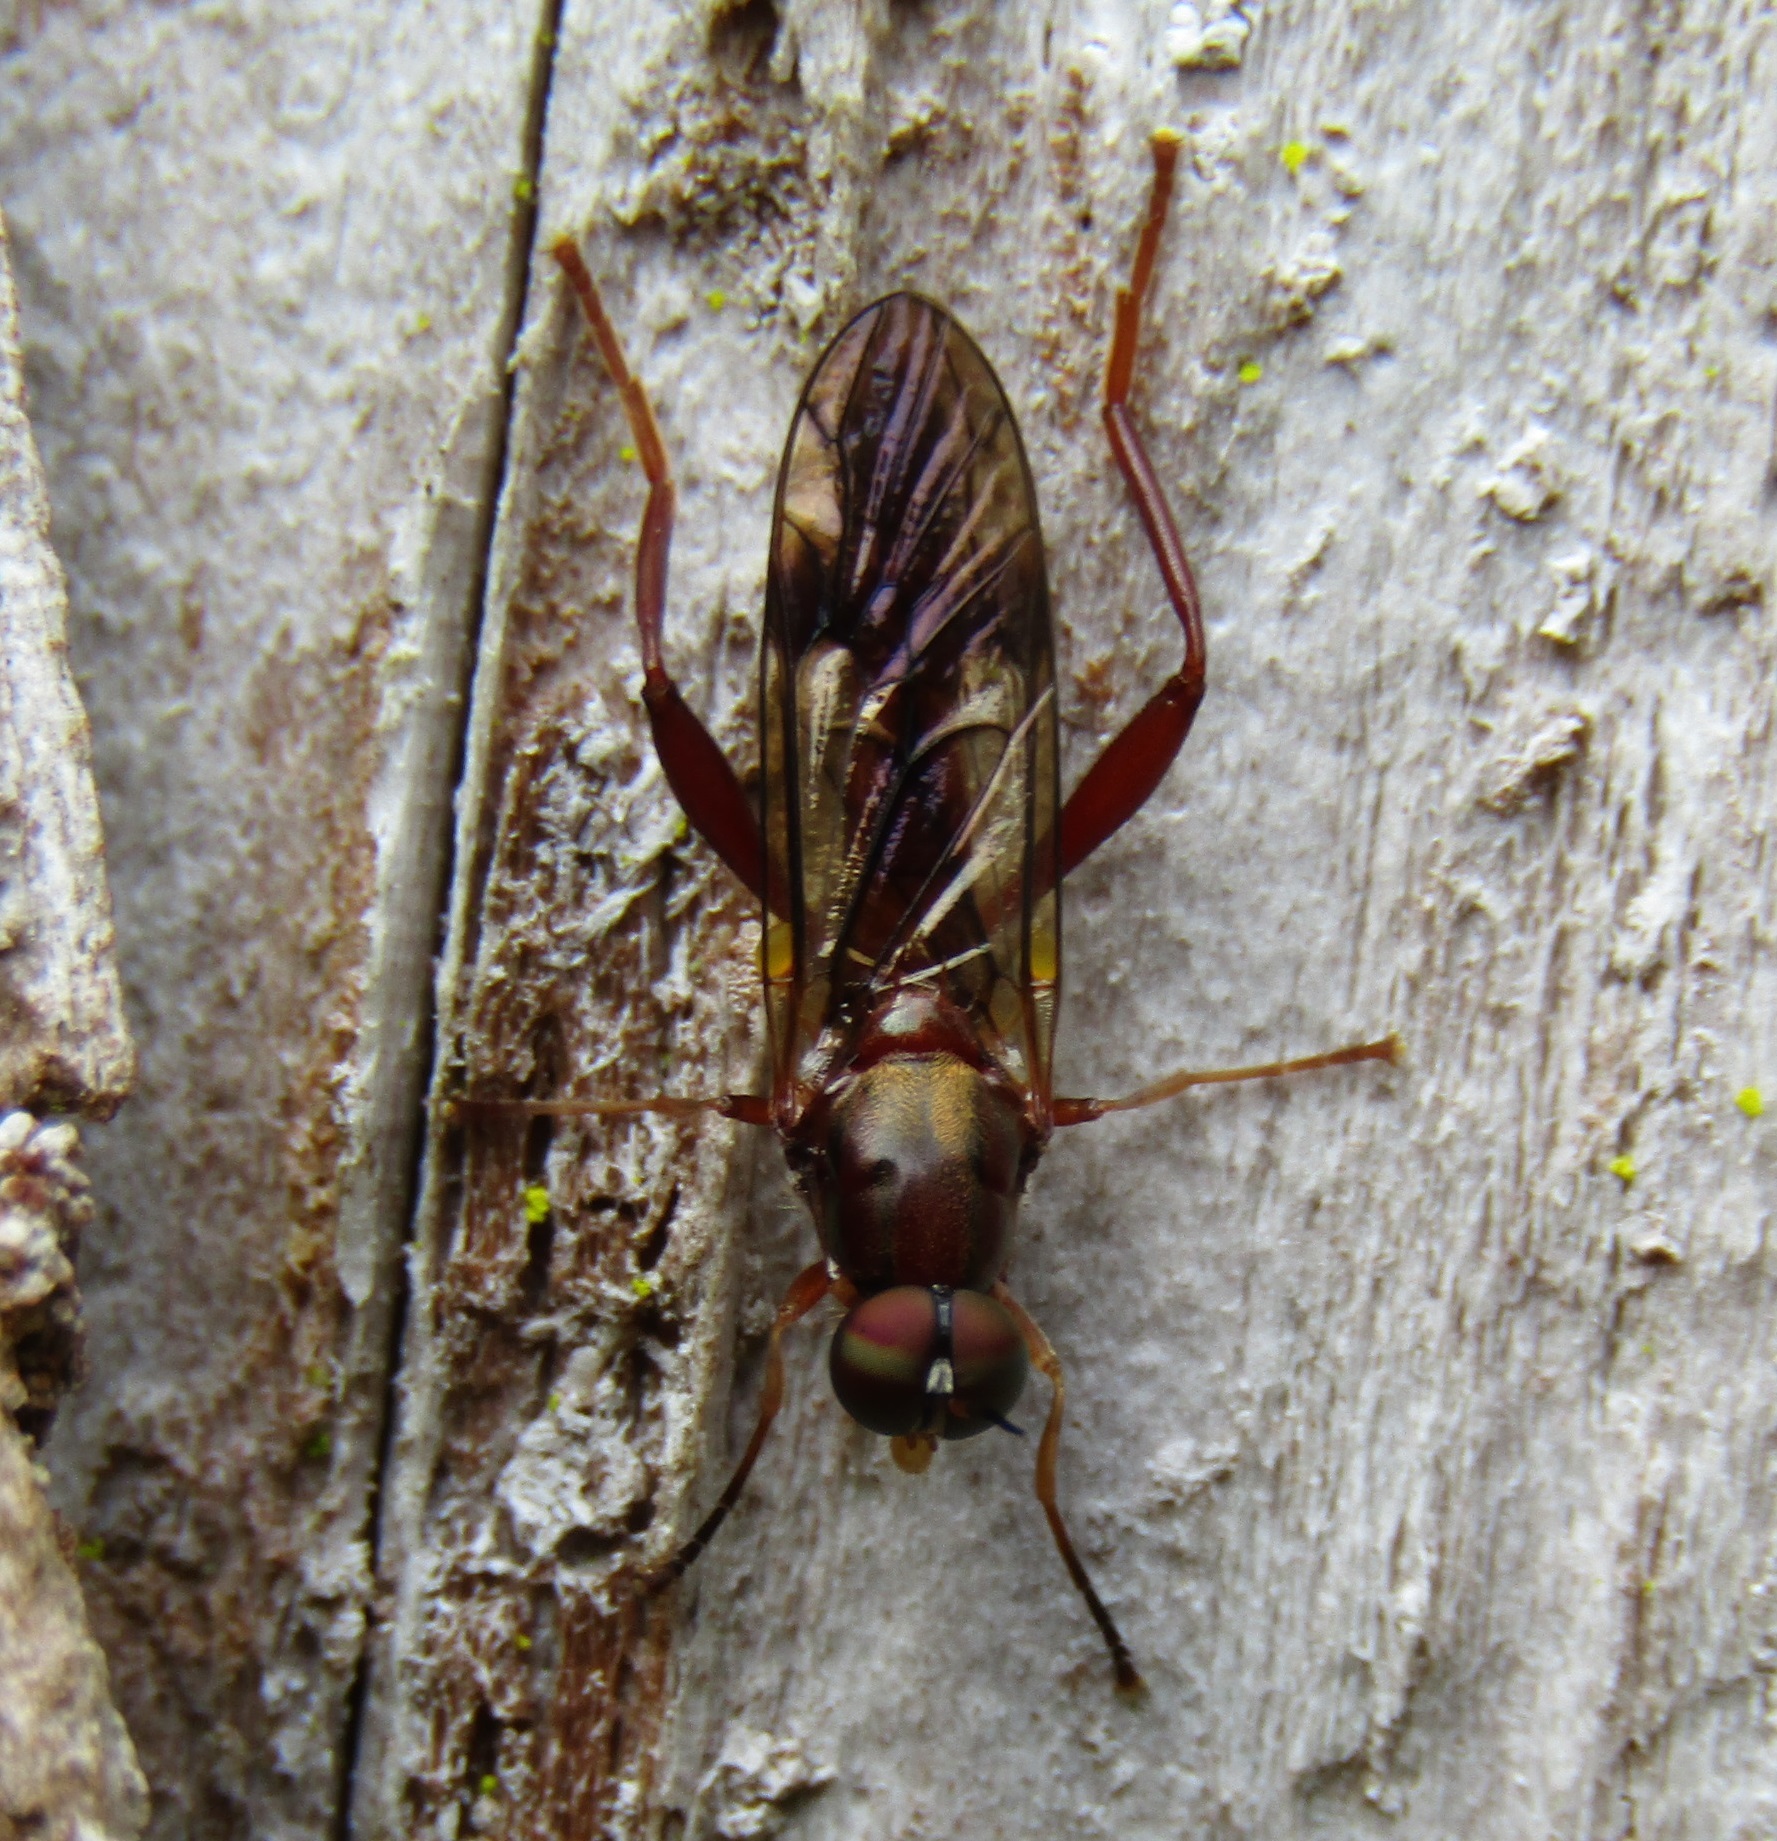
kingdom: Animalia
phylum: Arthropoda
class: Insecta
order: Diptera
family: Stratiomyidae
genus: Benhamyia
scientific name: Benhamyia straznitzkii
